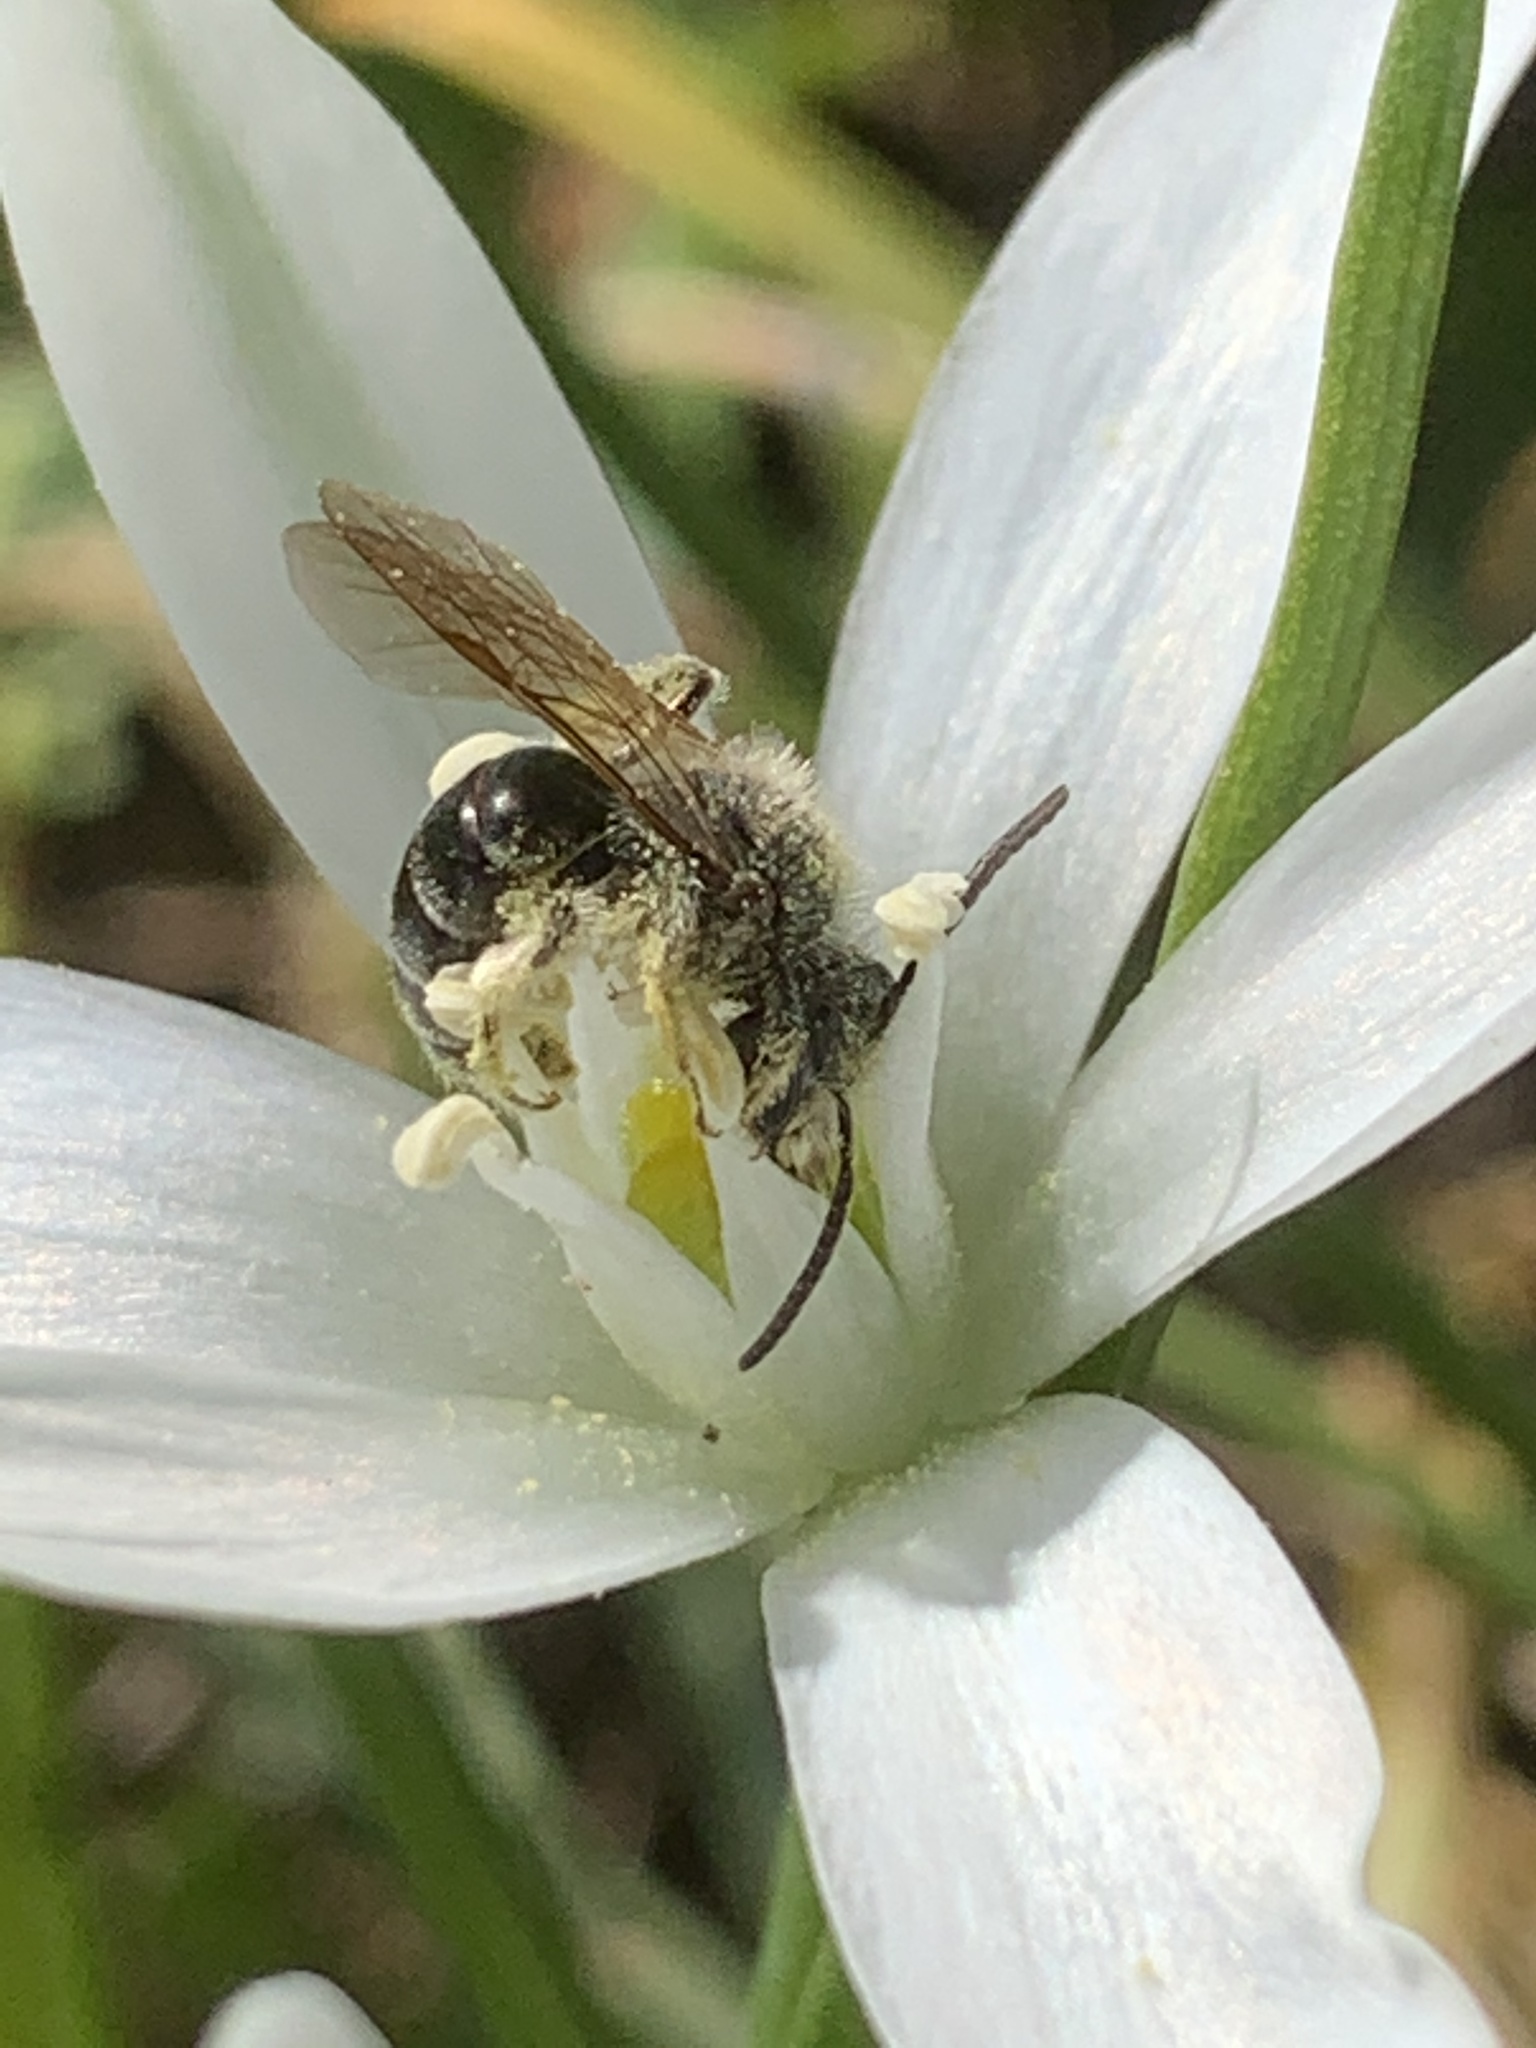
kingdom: Animalia
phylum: Arthropoda
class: Insecta
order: Hymenoptera
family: Andrenidae
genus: Andrena
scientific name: Andrena
